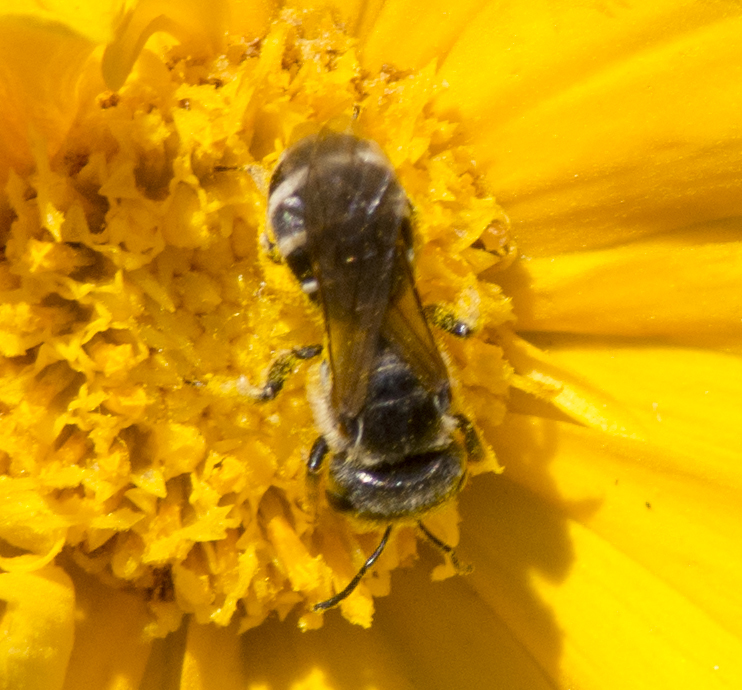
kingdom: Animalia
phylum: Arthropoda
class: Insecta
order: Hymenoptera
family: Halictidae
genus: Halictus
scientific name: Halictus ligatus
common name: Ligated furrow bee
